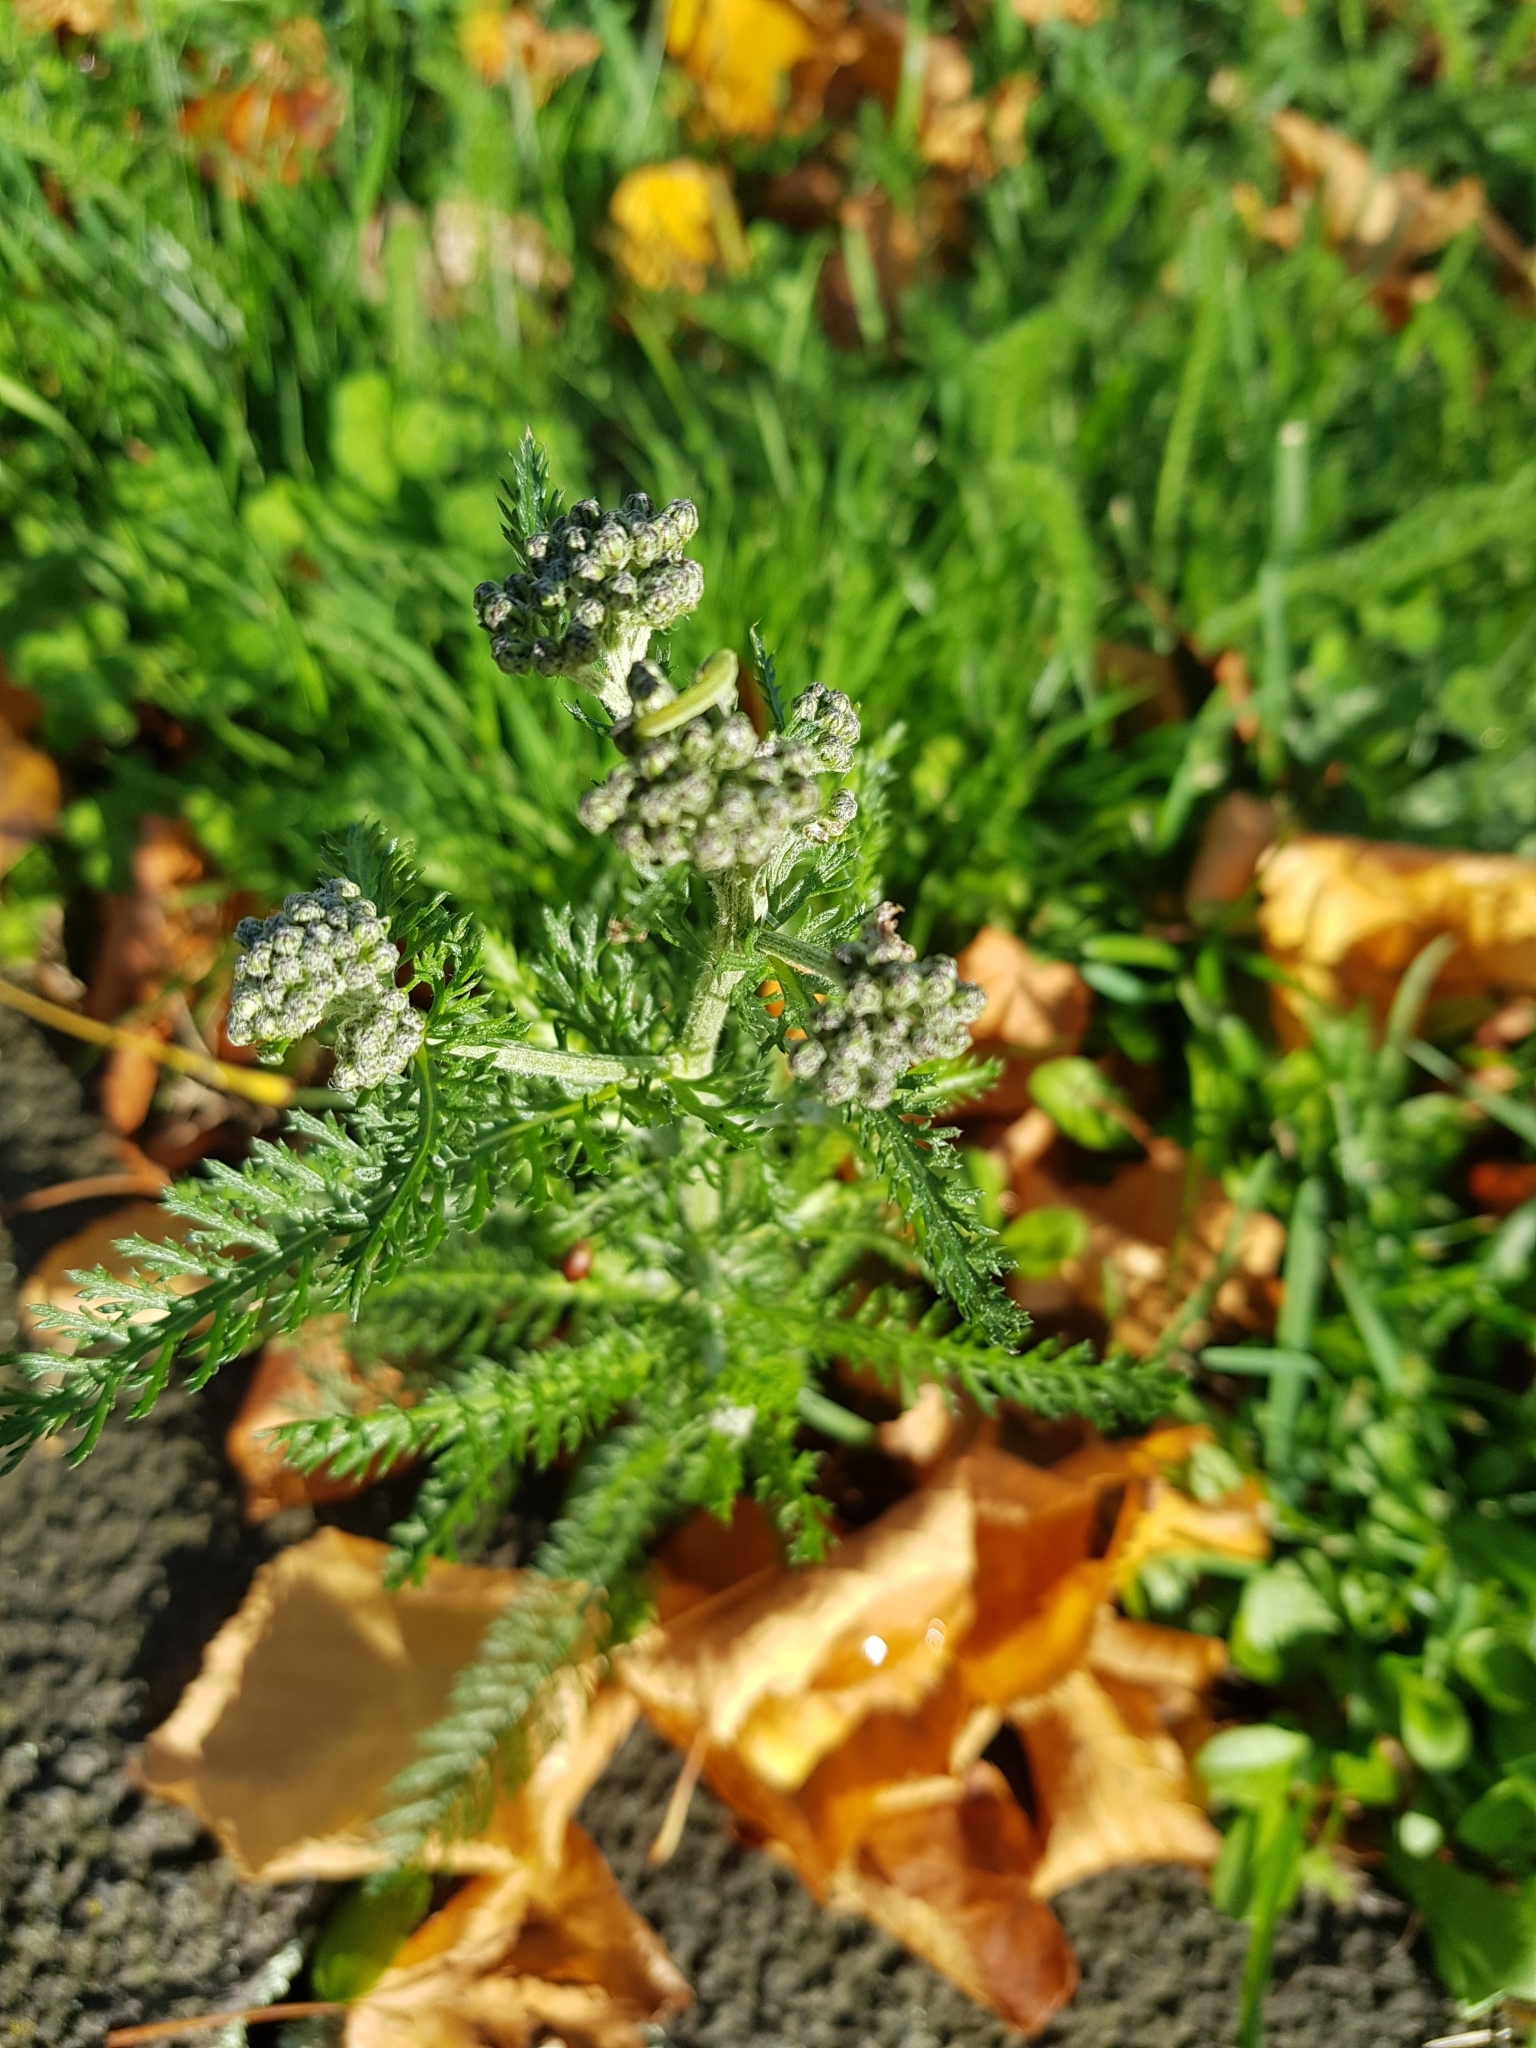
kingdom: Plantae
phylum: Tracheophyta
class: Magnoliopsida
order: Asterales
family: Asteraceae
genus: Achillea
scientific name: Achillea millefolium
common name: Yarrow
